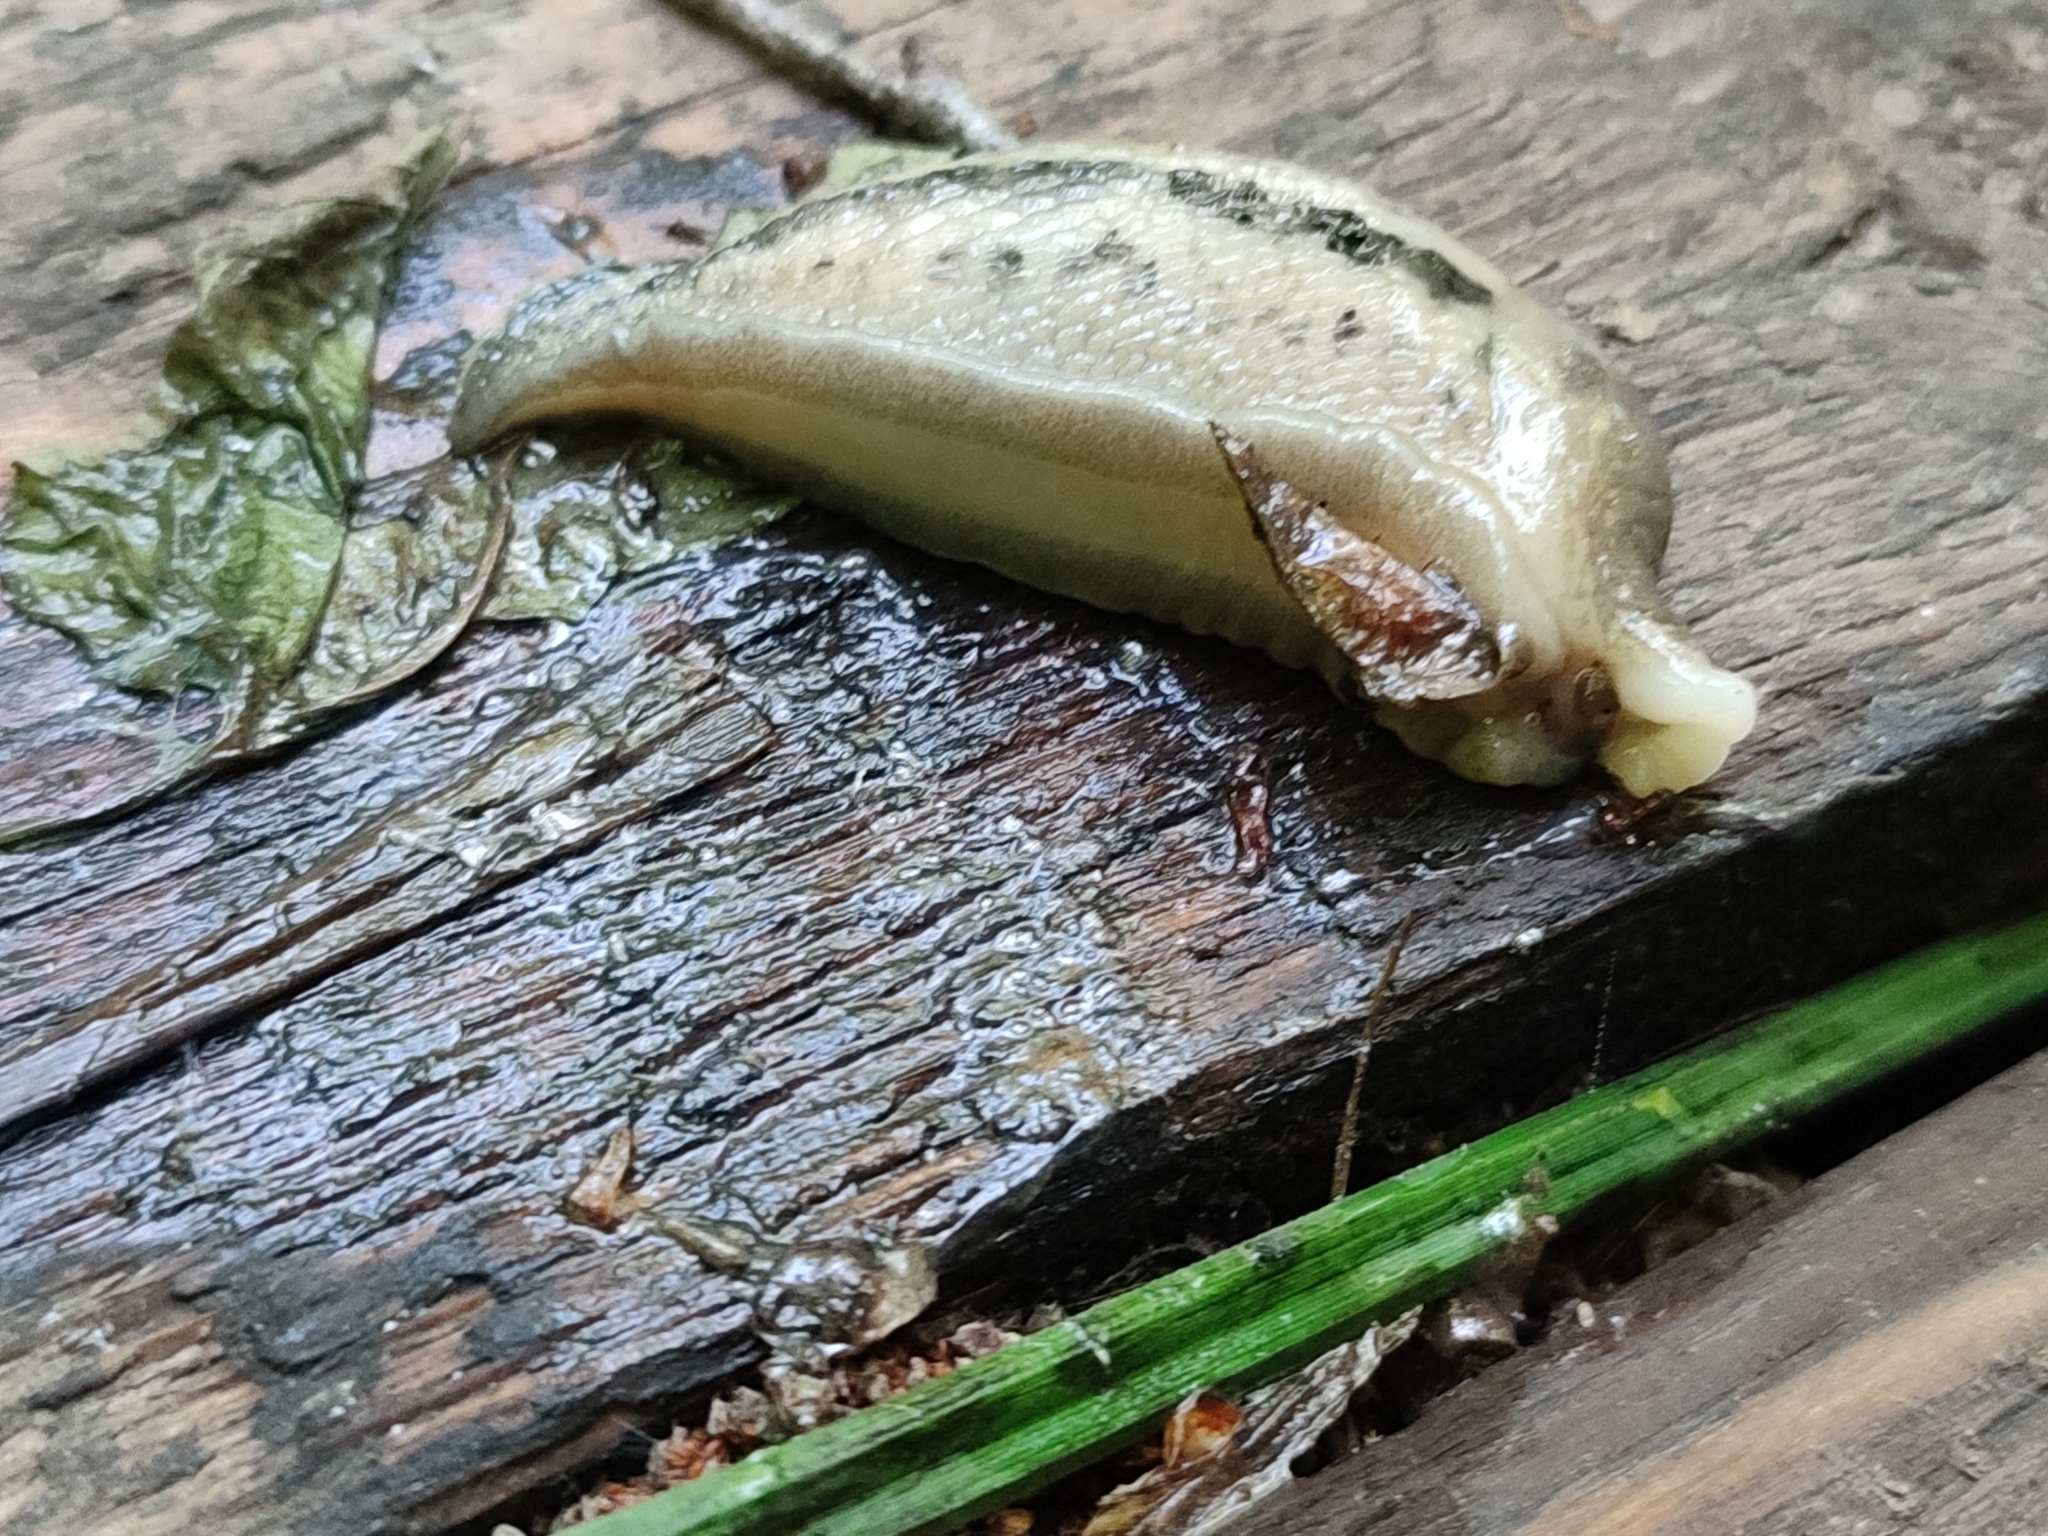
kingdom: Animalia
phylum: Mollusca
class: Gastropoda
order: Stylommatophora
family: Limacidae
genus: Limax
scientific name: Limax cinereoniger
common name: Ash-black slug
